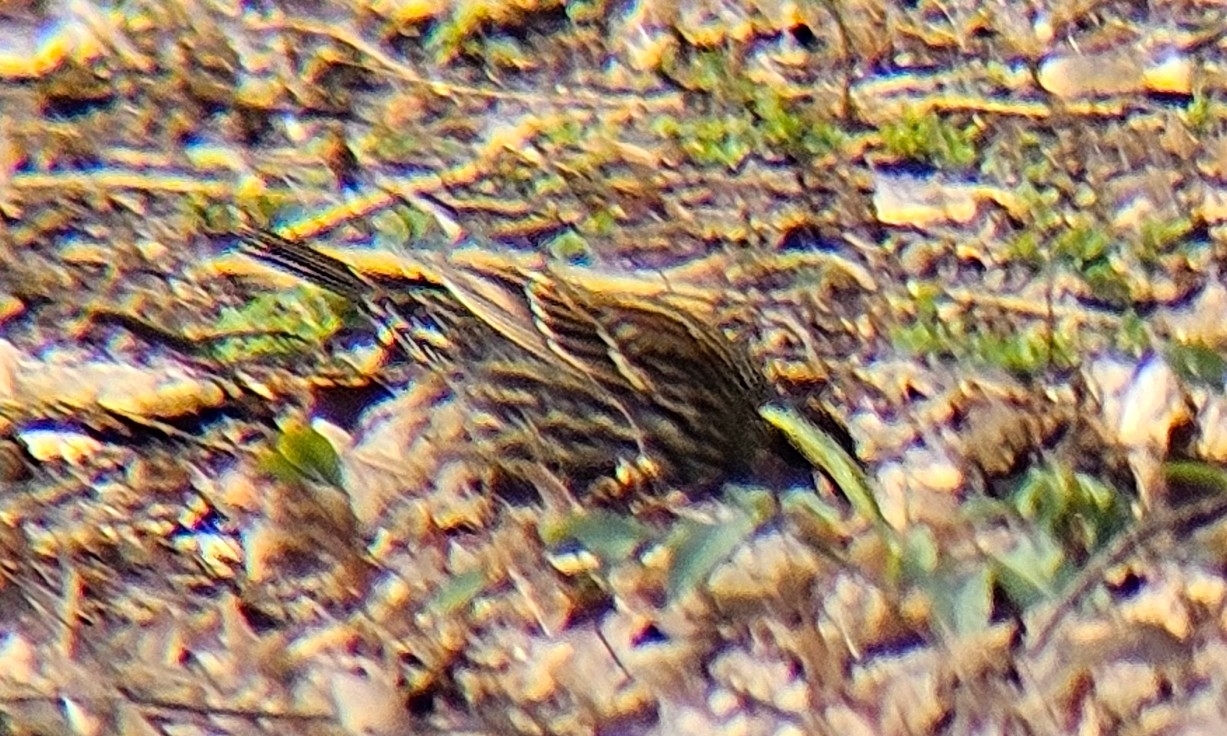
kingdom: Animalia
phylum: Chordata
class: Aves
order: Passeriformes
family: Icteridae
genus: Agelaius
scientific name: Agelaius phoeniceus
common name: Red-winged blackbird
